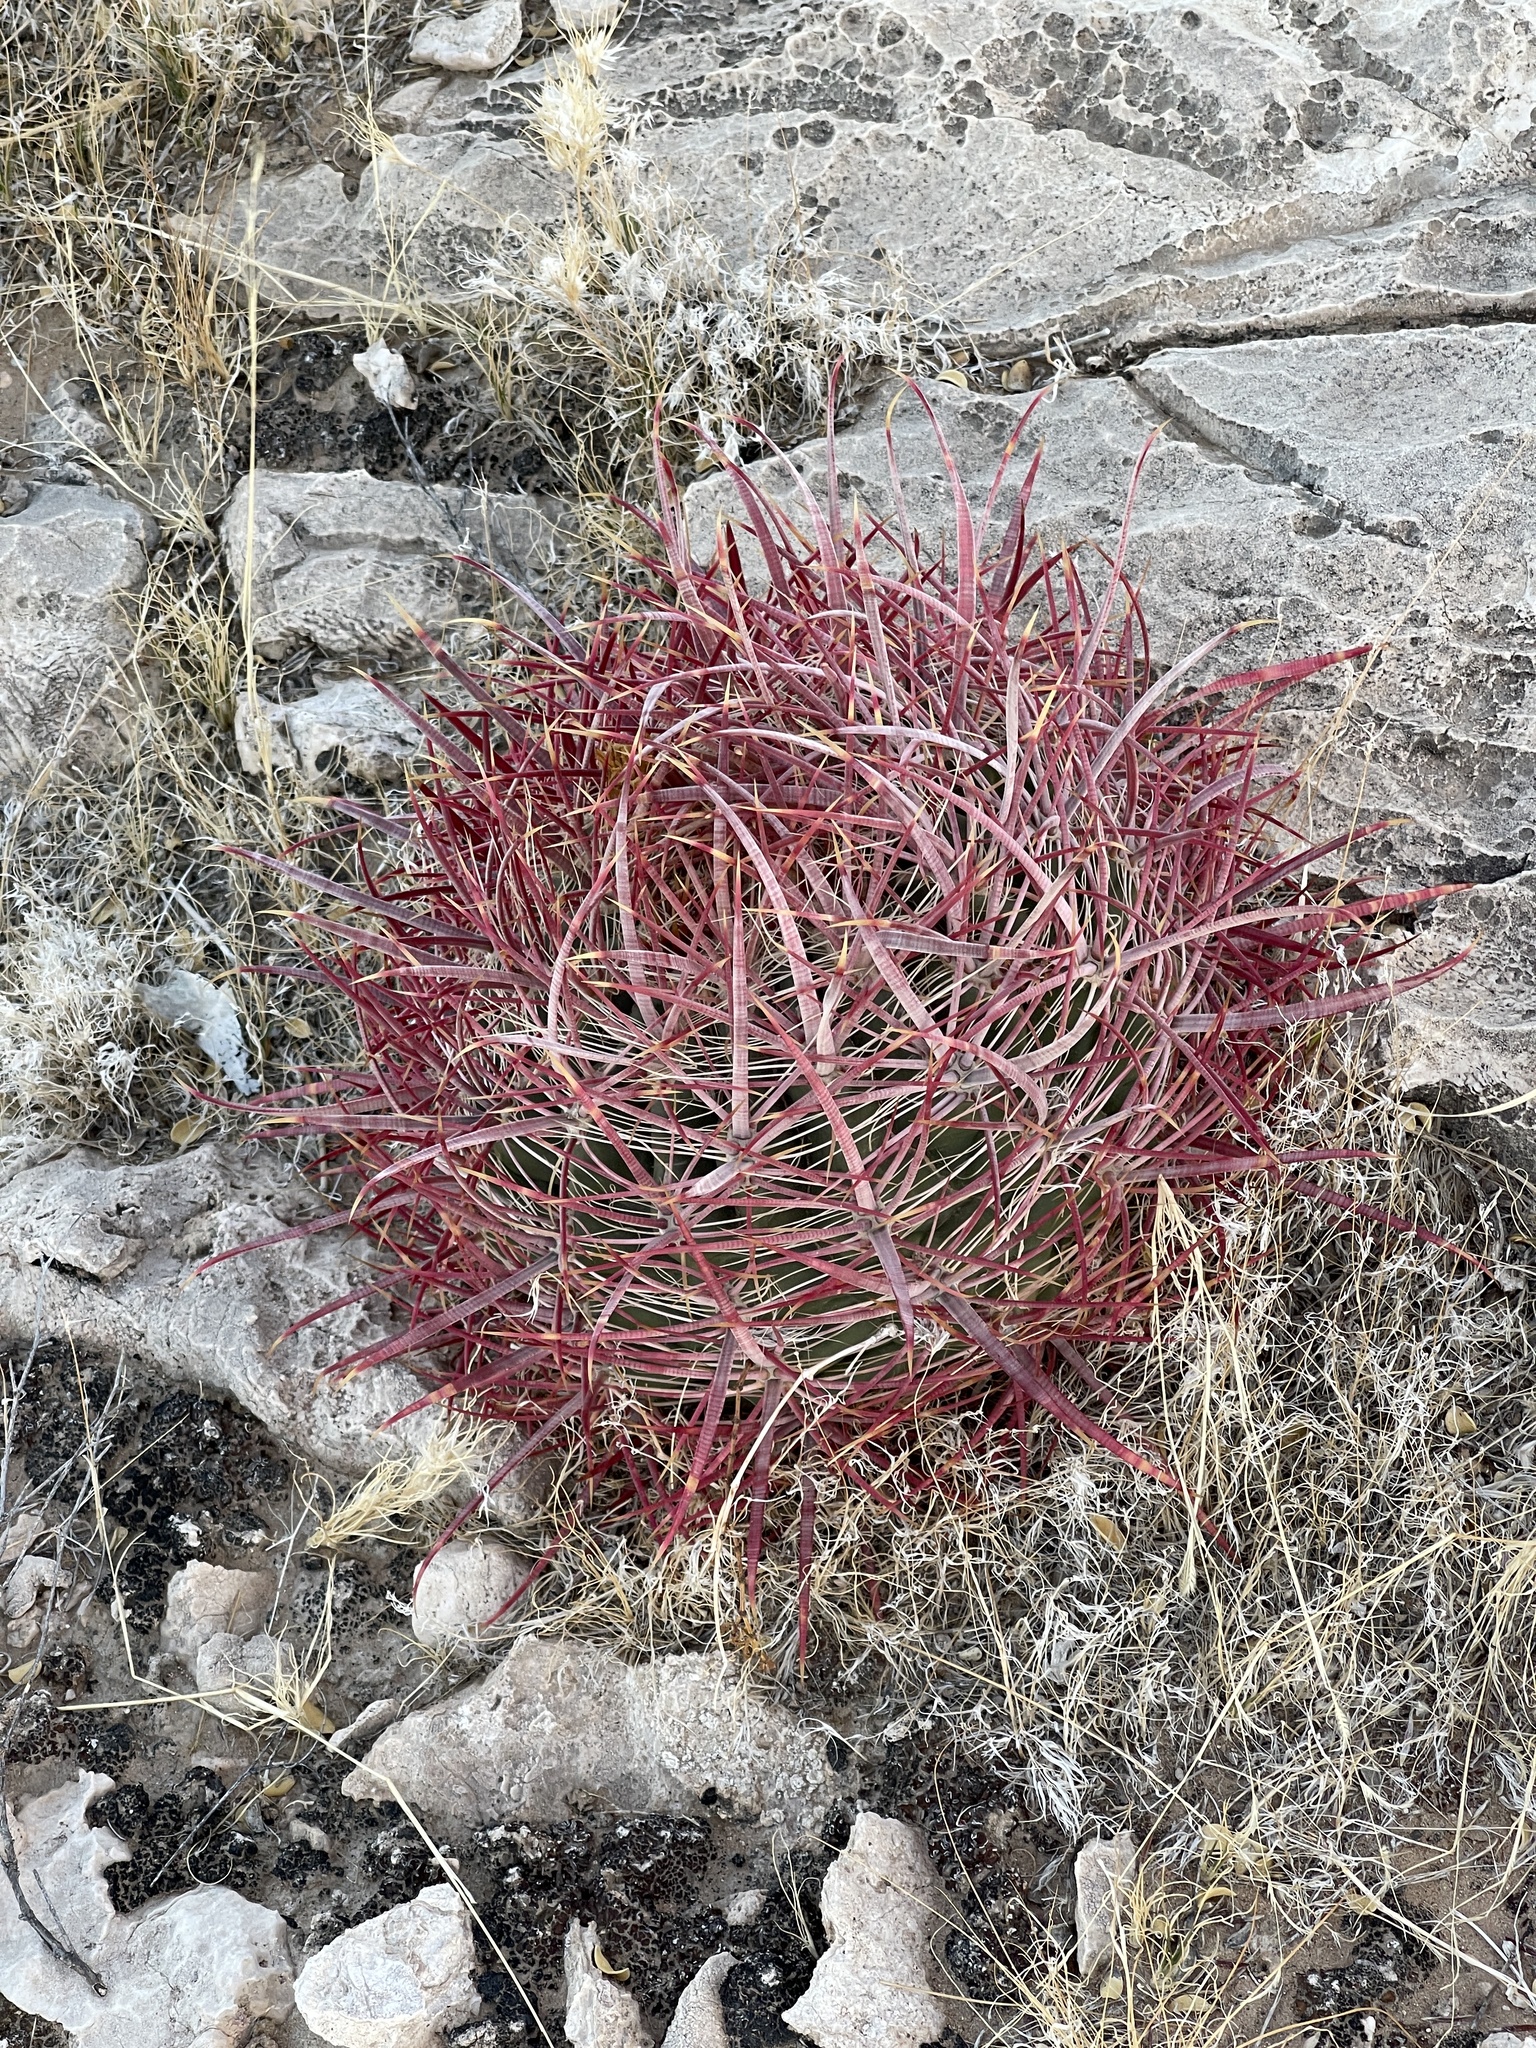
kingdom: Plantae
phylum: Tracheophyta
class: Magnoliopsida
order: Caryophyllales
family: Cactaceae
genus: Ferocactus
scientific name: Ferocactus cylindraceus
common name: California barrel cactus
